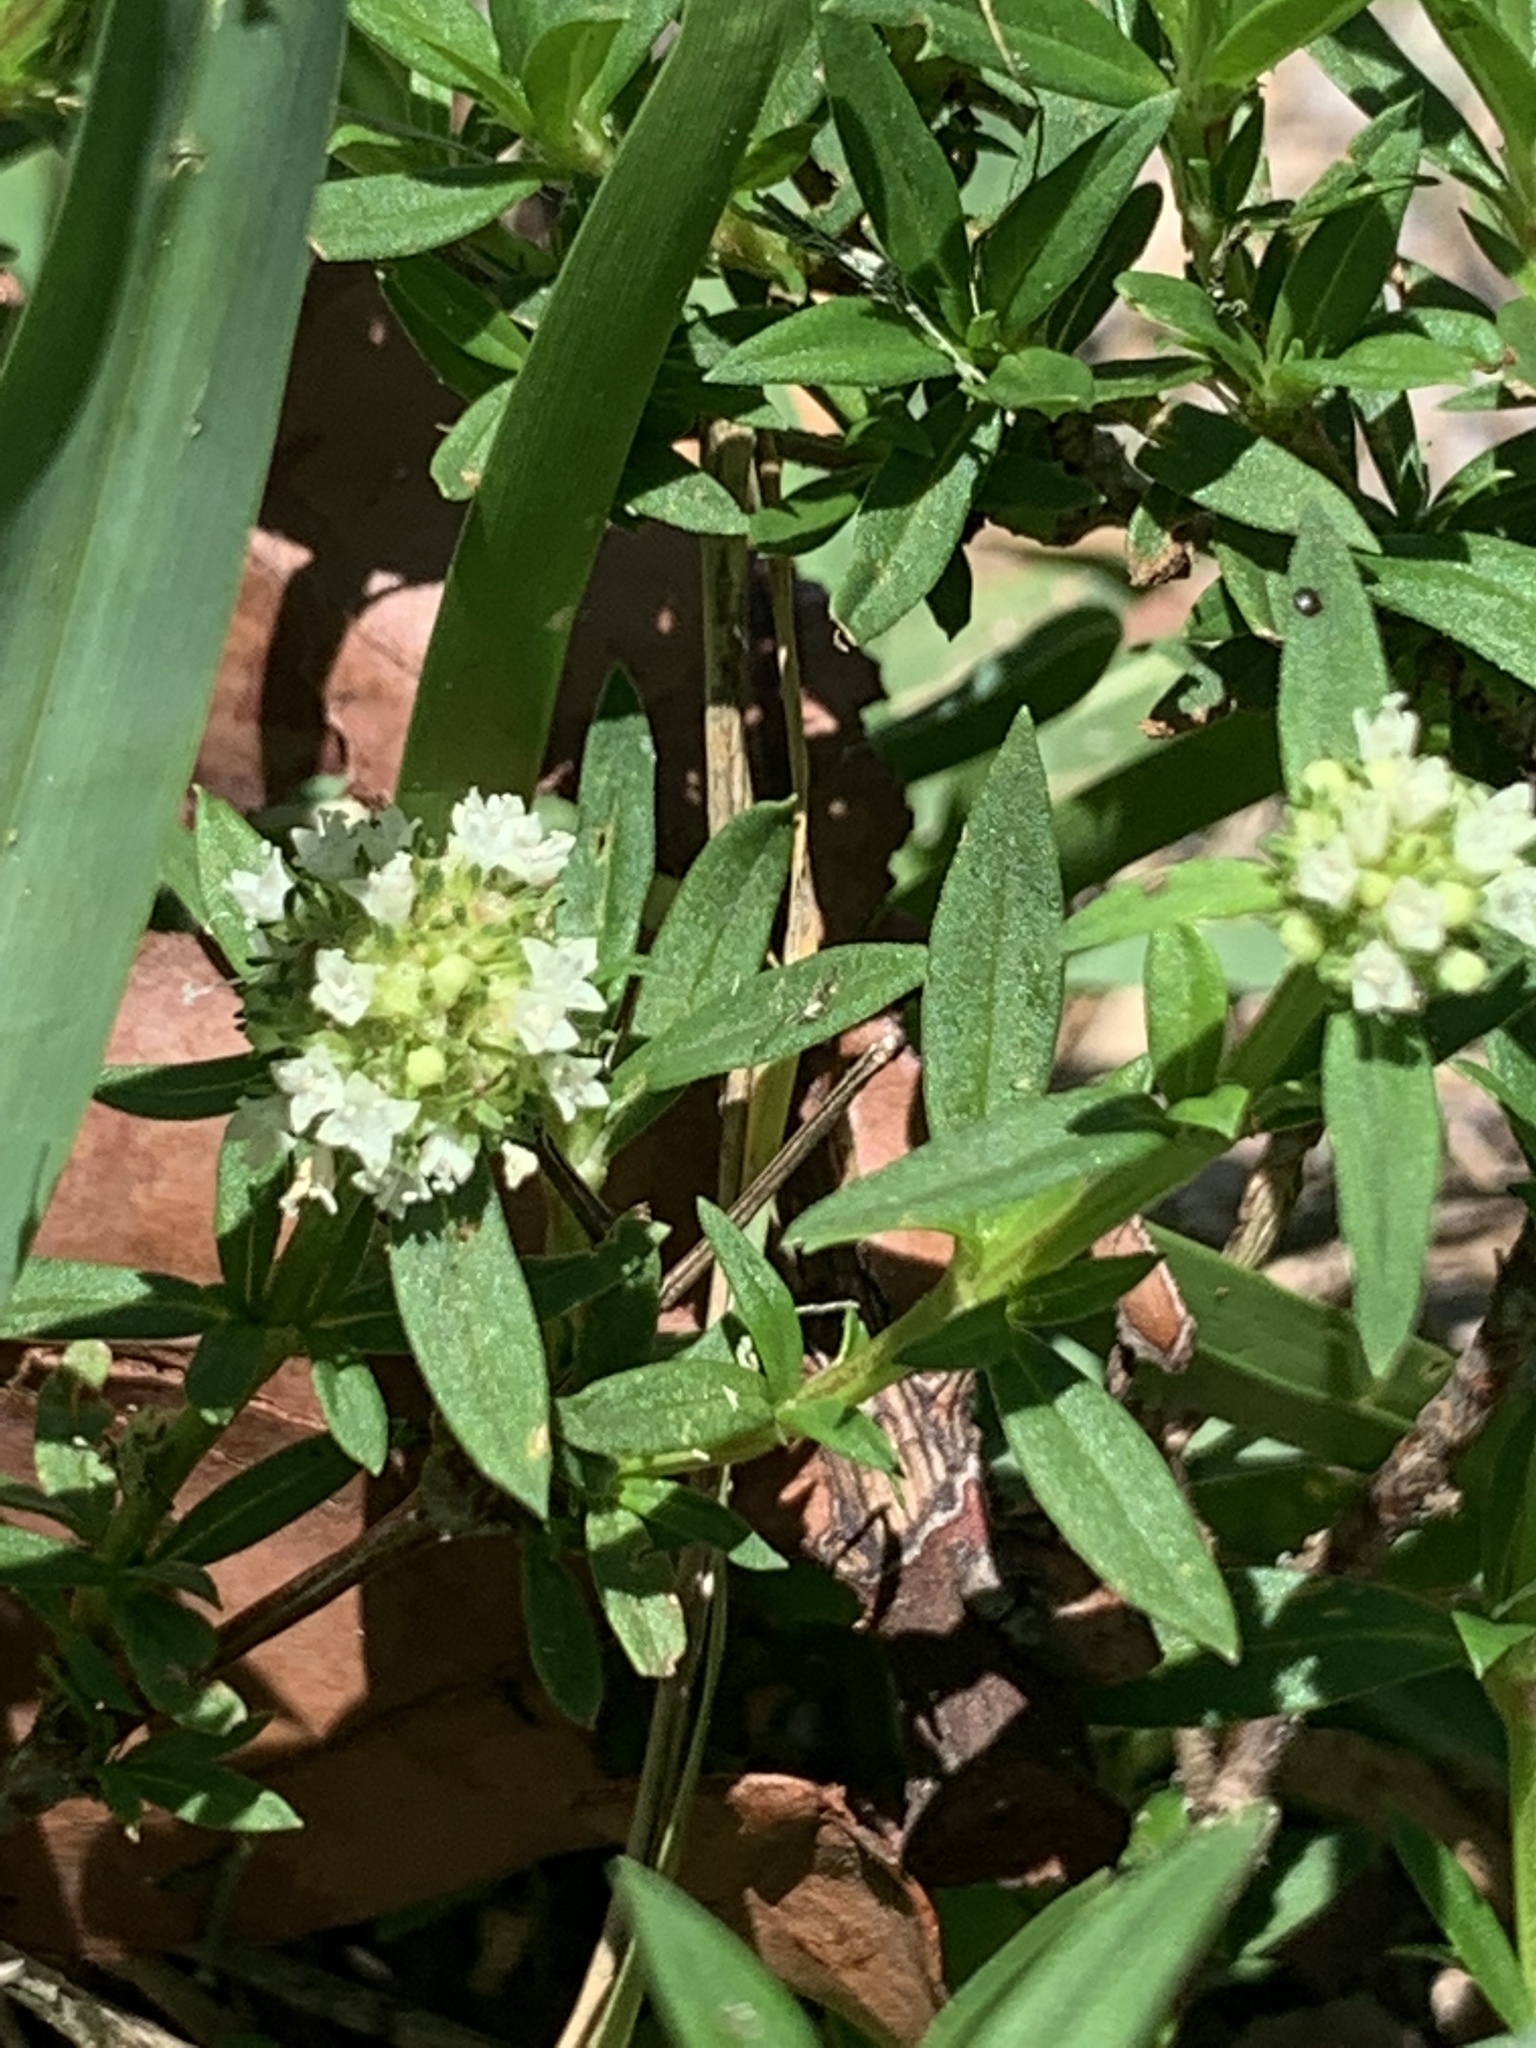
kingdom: Plantae
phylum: Tracheophyta
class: Magnoliopsida
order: Gentianales
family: Rubiaceae
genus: Spermacoce
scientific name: Spermacoce verticillata
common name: Shrubby false buttonweed
